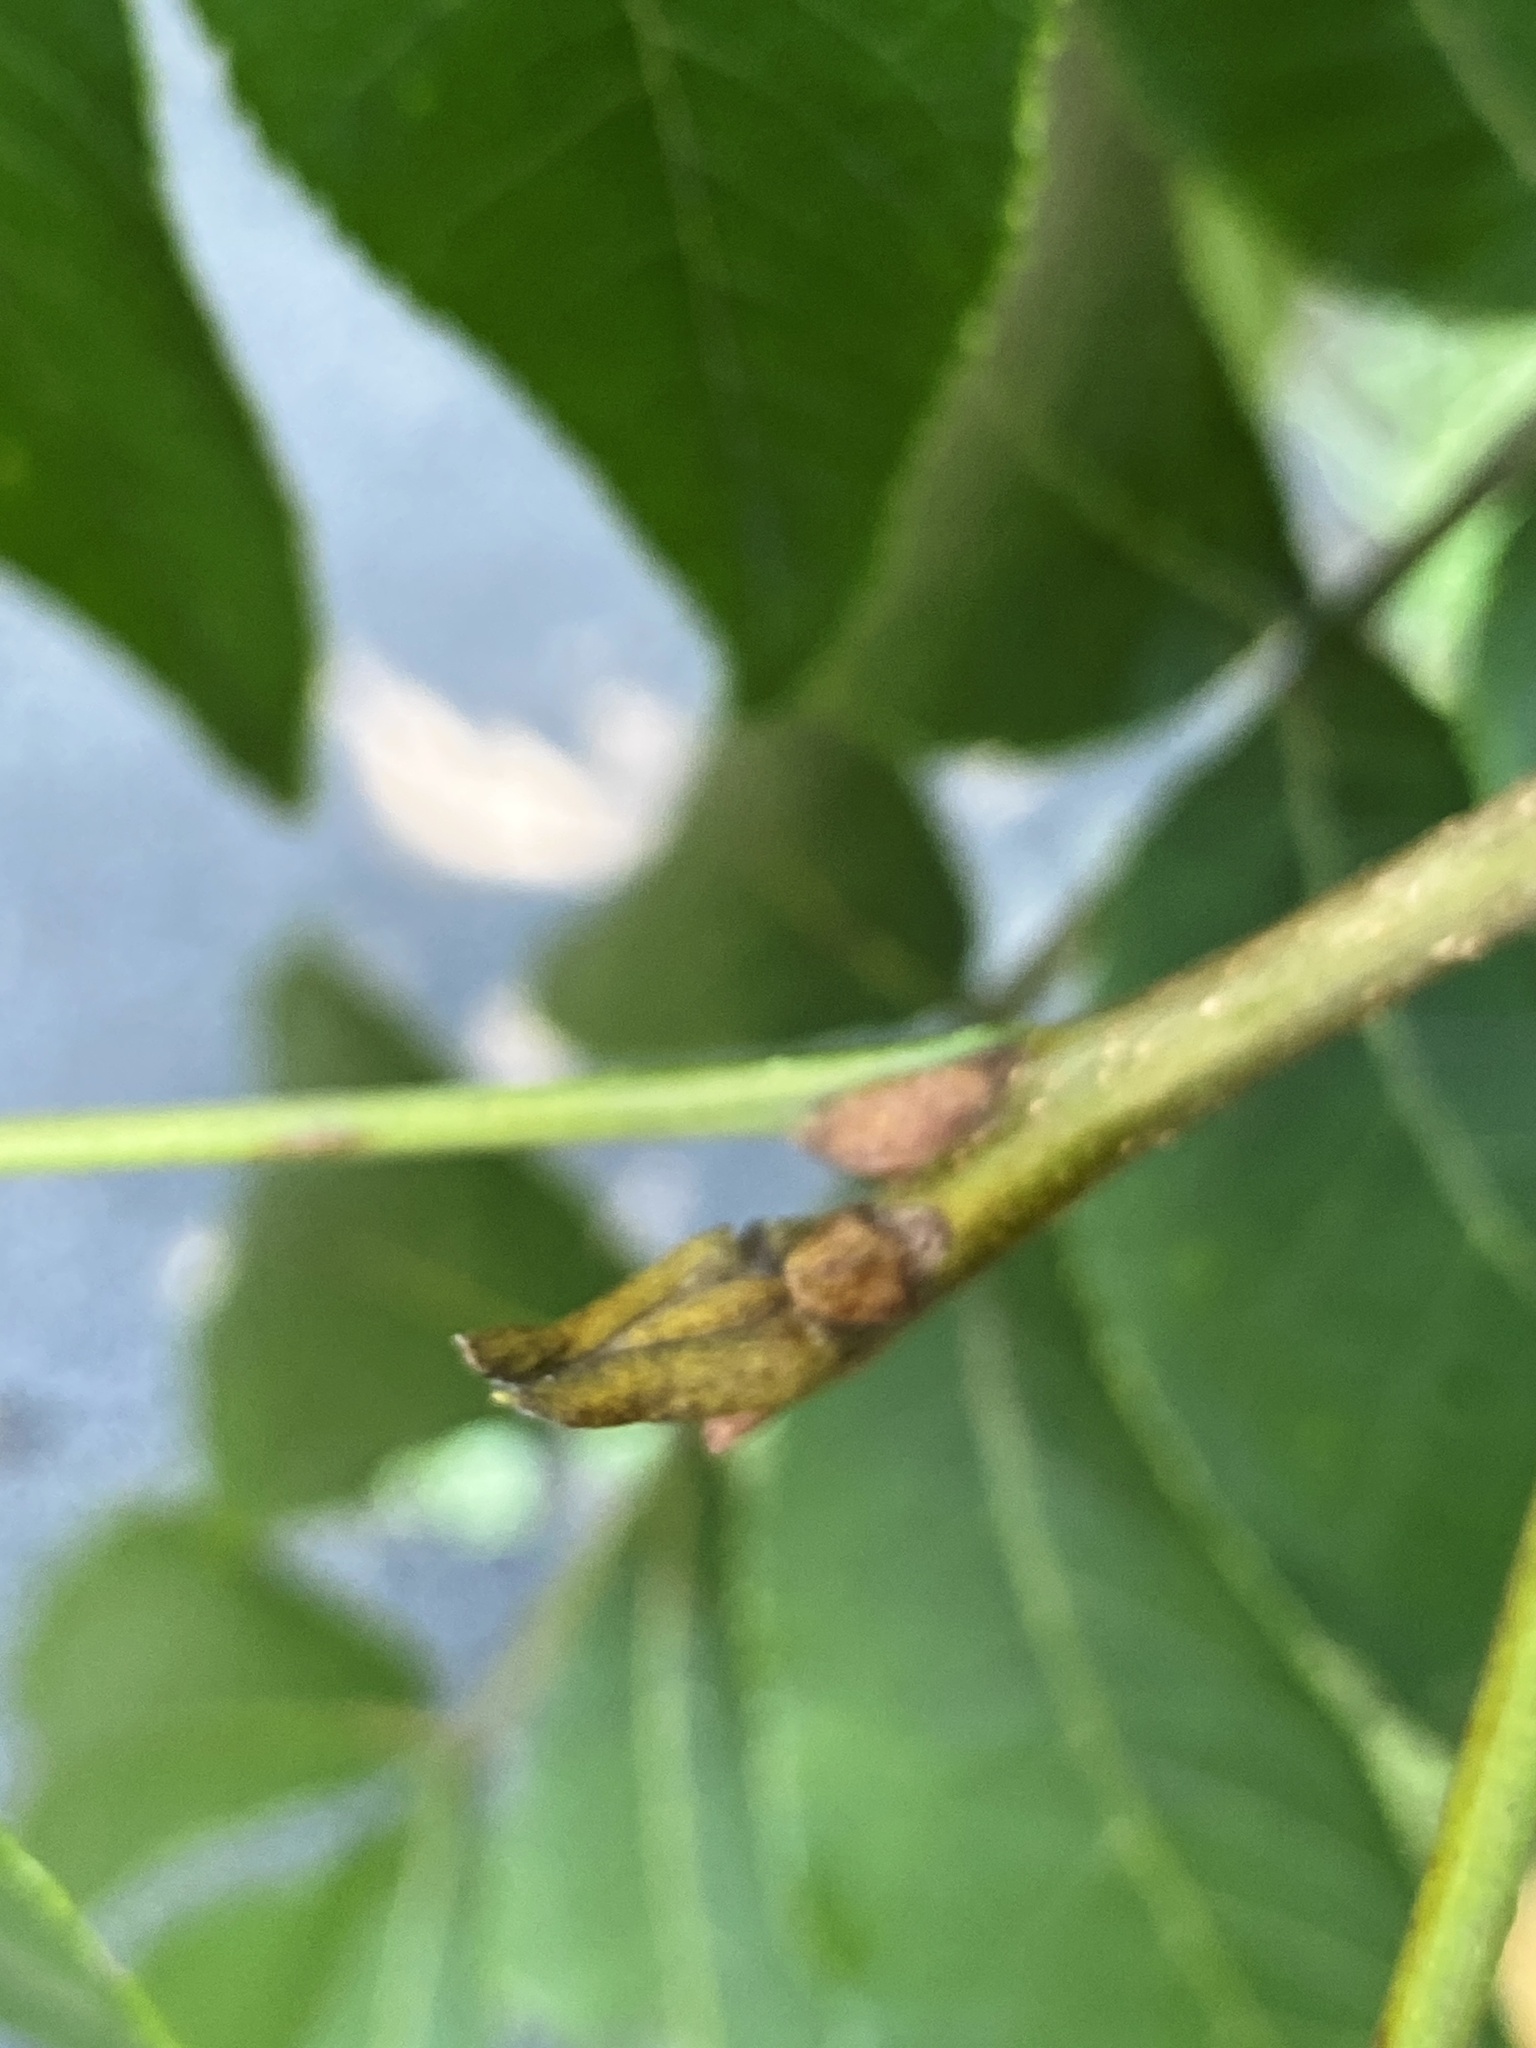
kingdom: Plantae
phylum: Tracheophyta
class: Magnoliopsida
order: Fagales
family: Juglandaceae
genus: Carya
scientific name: Carya cordiformis
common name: Bitternut hickory
